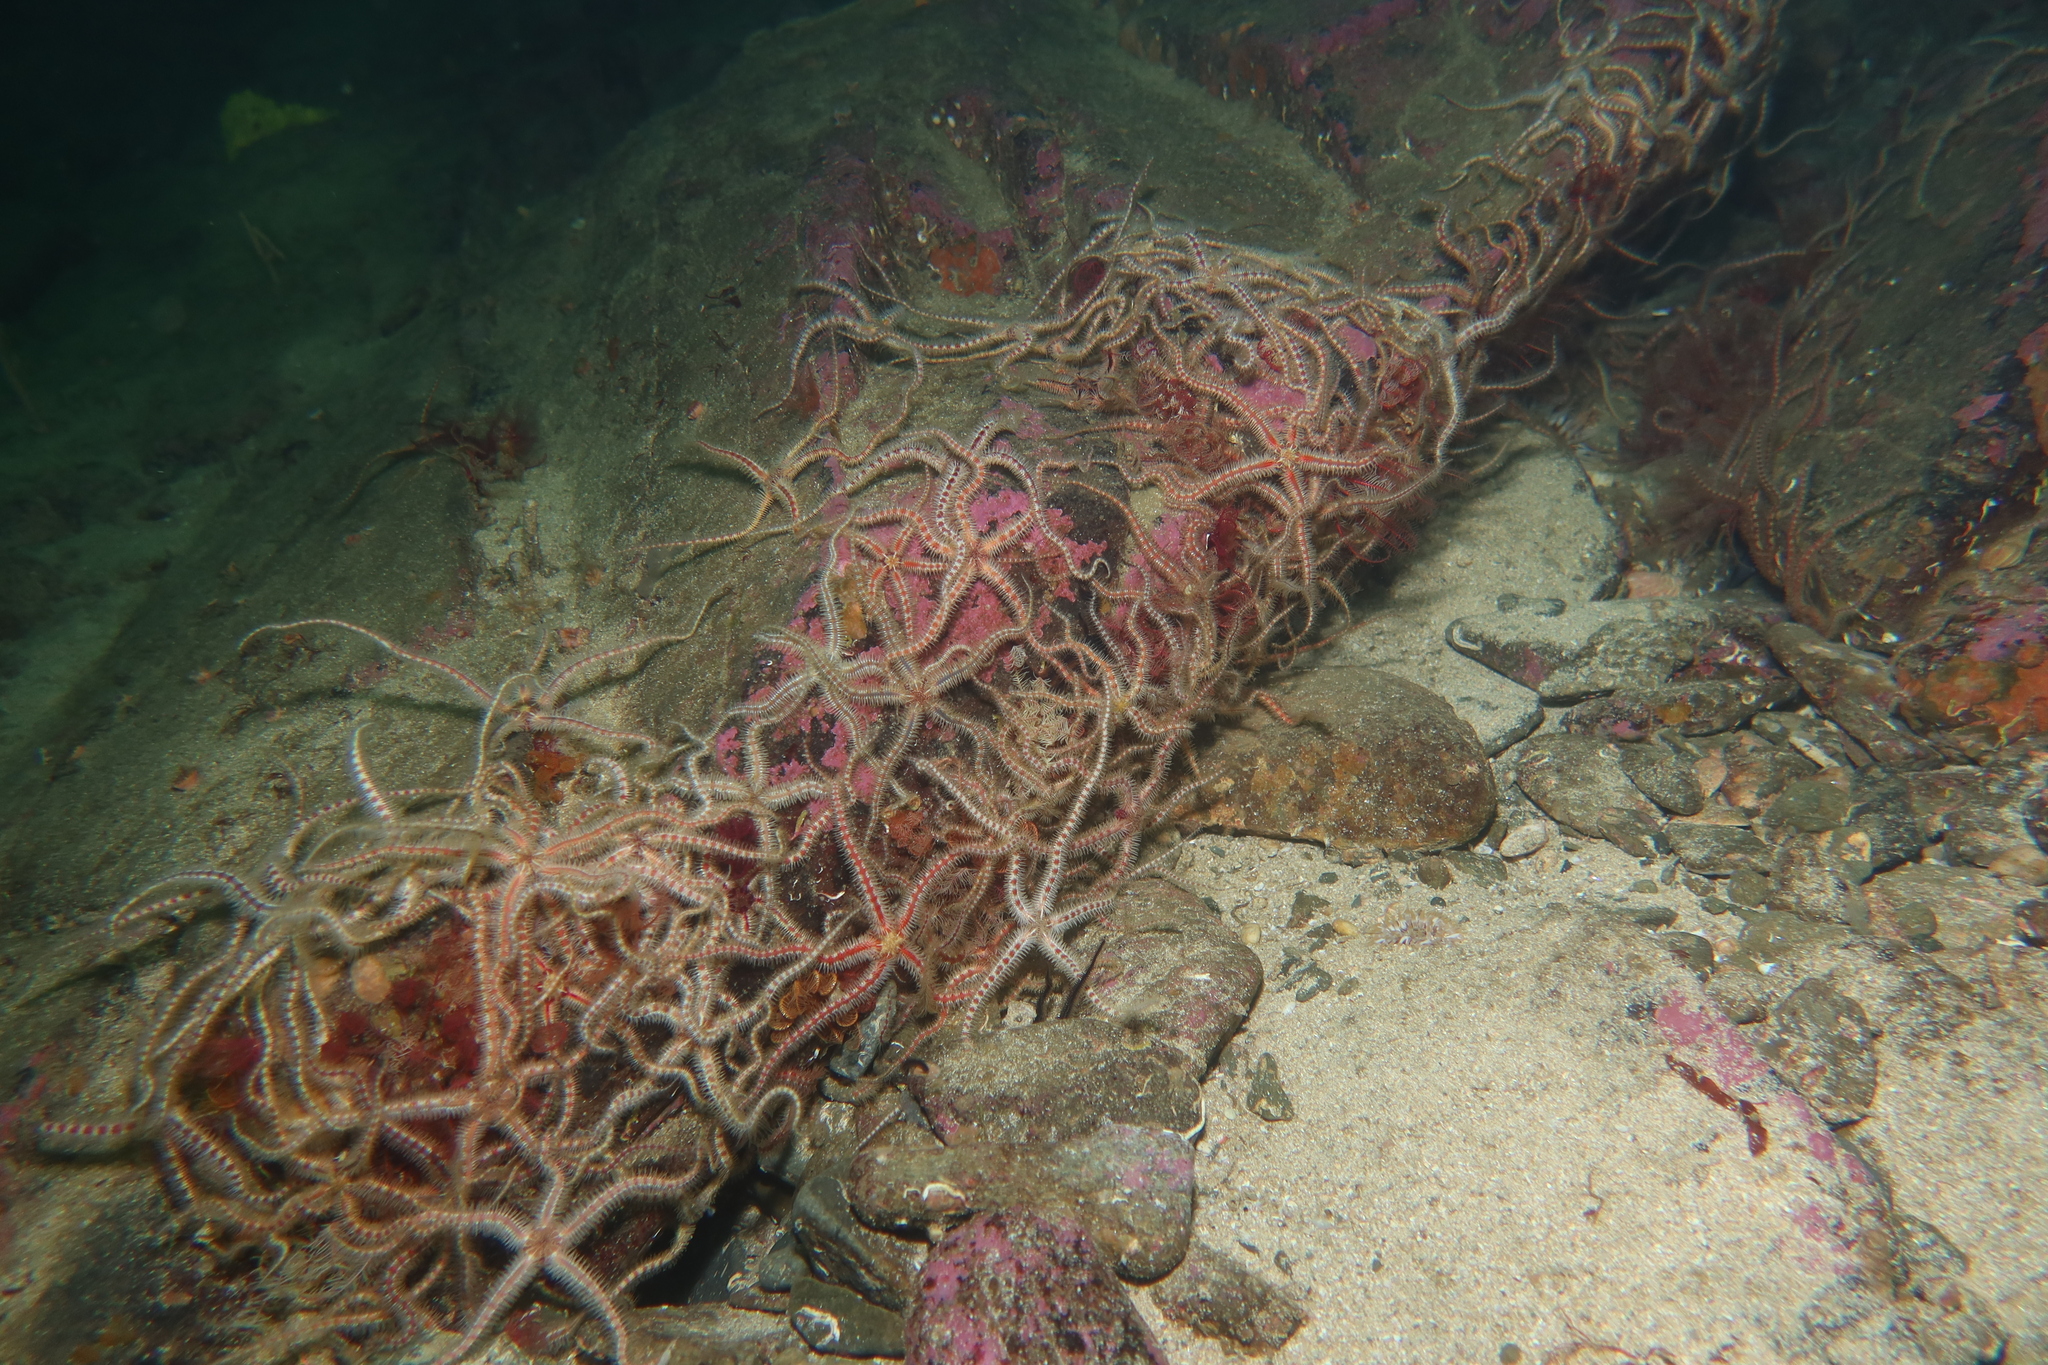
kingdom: Animalia
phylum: Echinodermata
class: Ophiuroidea
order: Amphilepidida
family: Ophiotrichidae
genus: Ophiothrix
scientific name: Ophiothrix fragilis
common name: Common brittlestar
